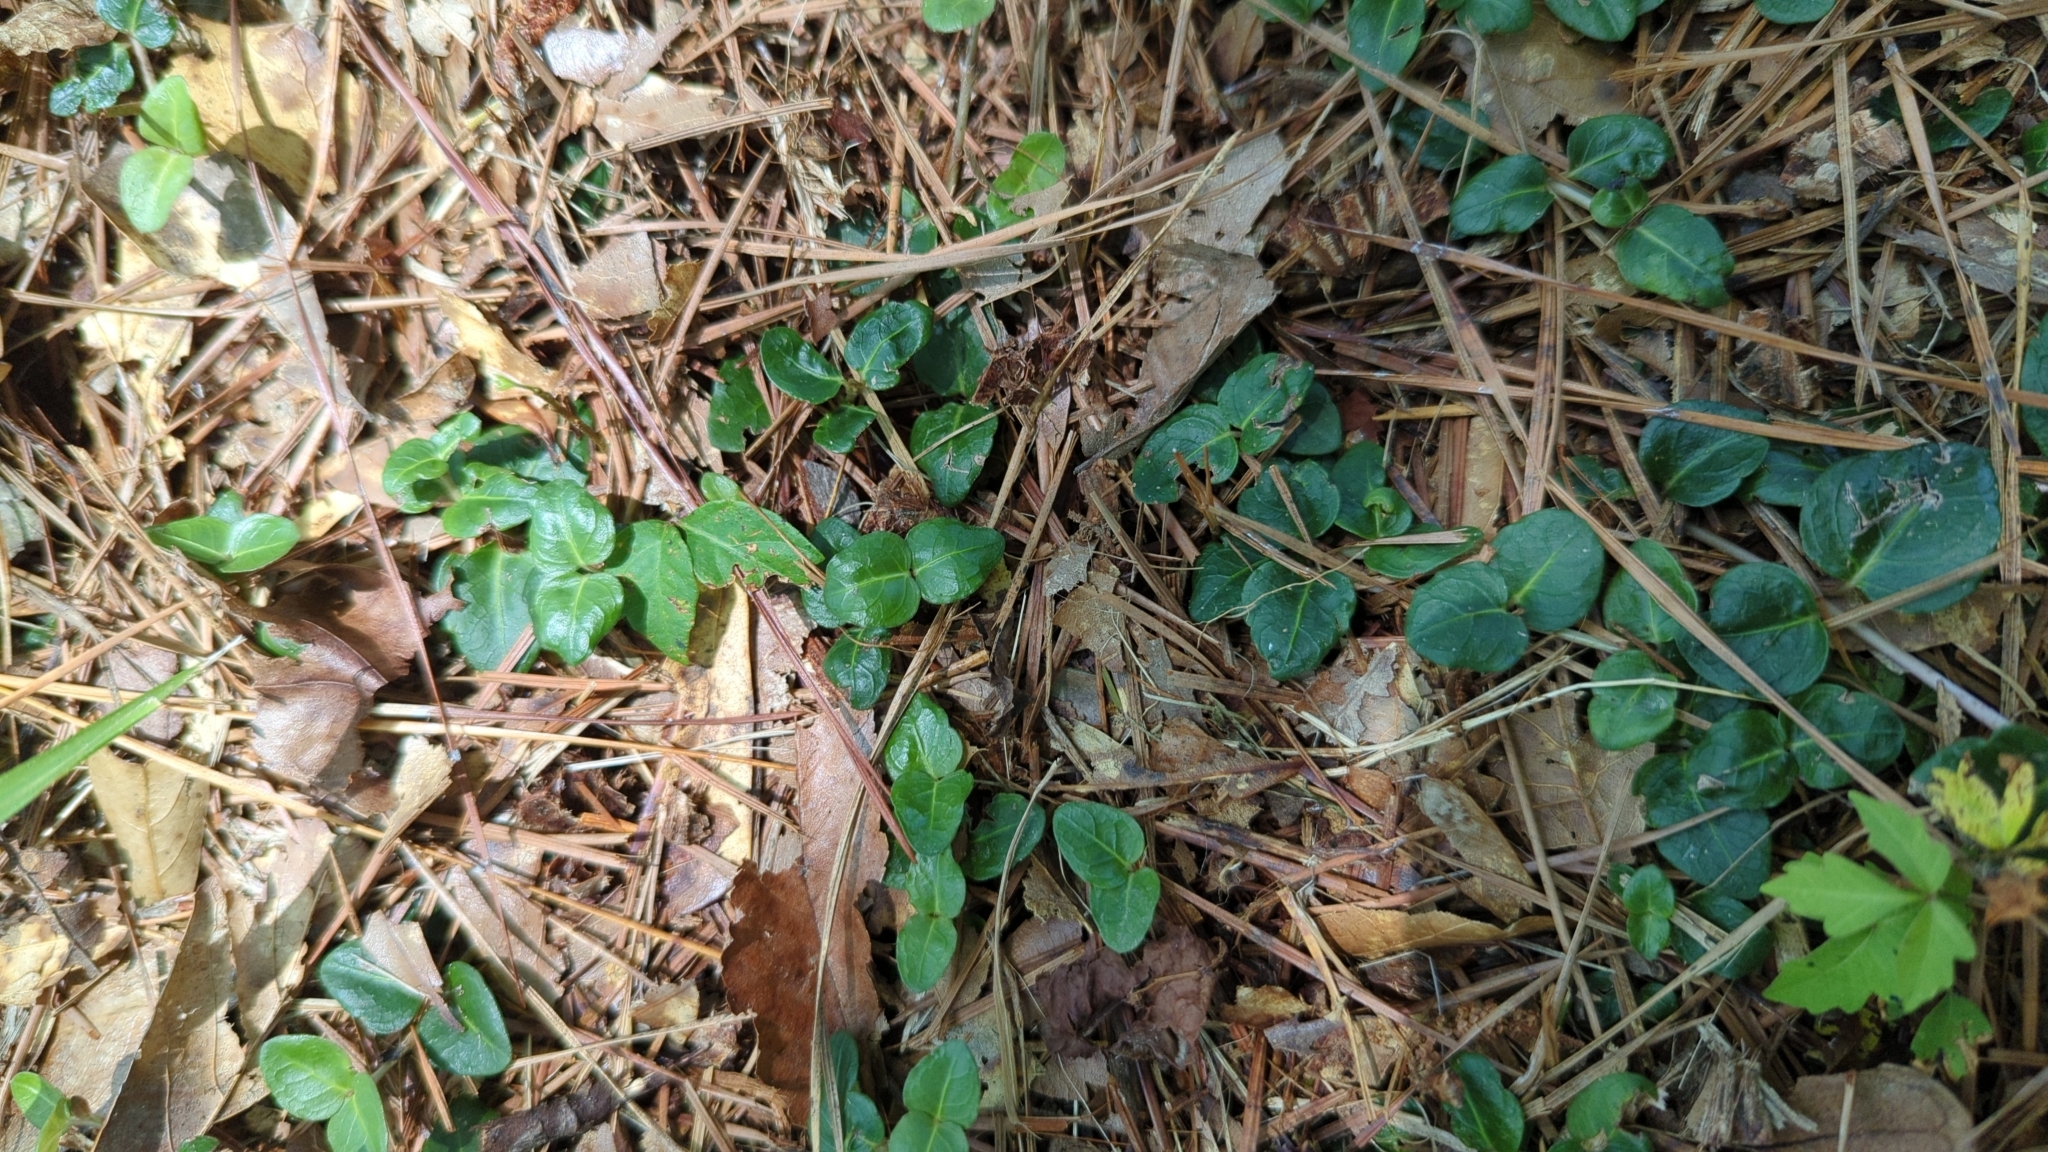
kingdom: Plantae
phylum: Tracheophyta
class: Magnoliopsida
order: Gentianales
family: Rubiaceae
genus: Mitchella
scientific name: Mitchella repens
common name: Partridge-berry
